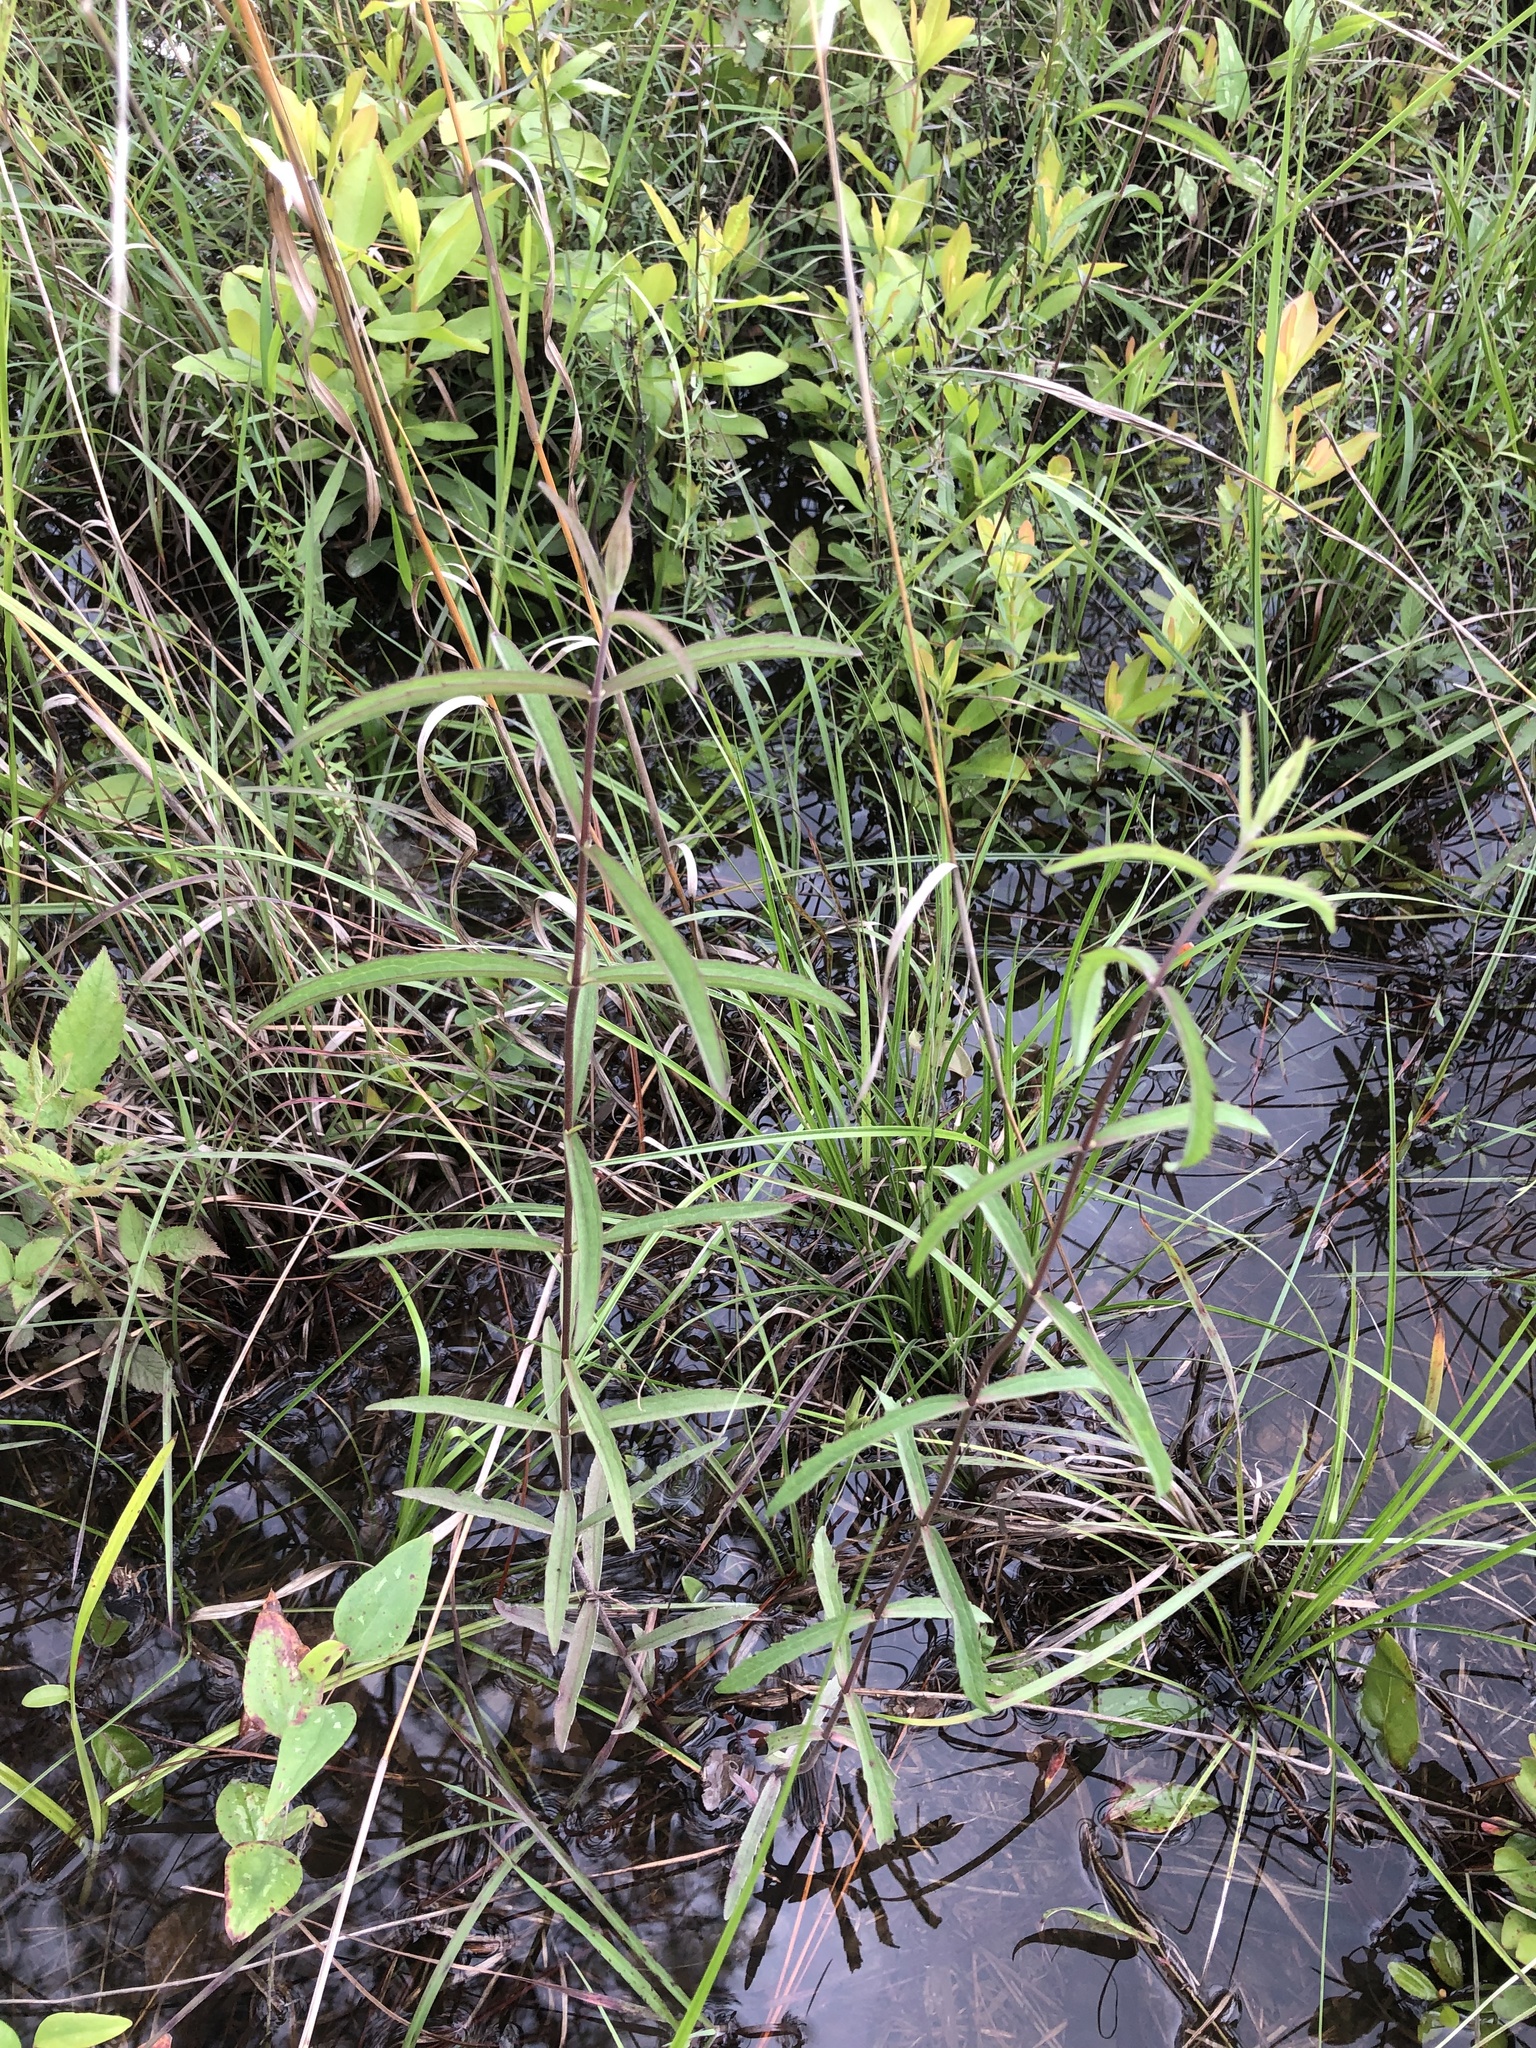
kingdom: Plantae
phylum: Tracheophyta
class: Magnoliopsida
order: Asterales
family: Asteraceae
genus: Eupatorium
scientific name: Eupatorium leucolepis
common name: Justiceweed
